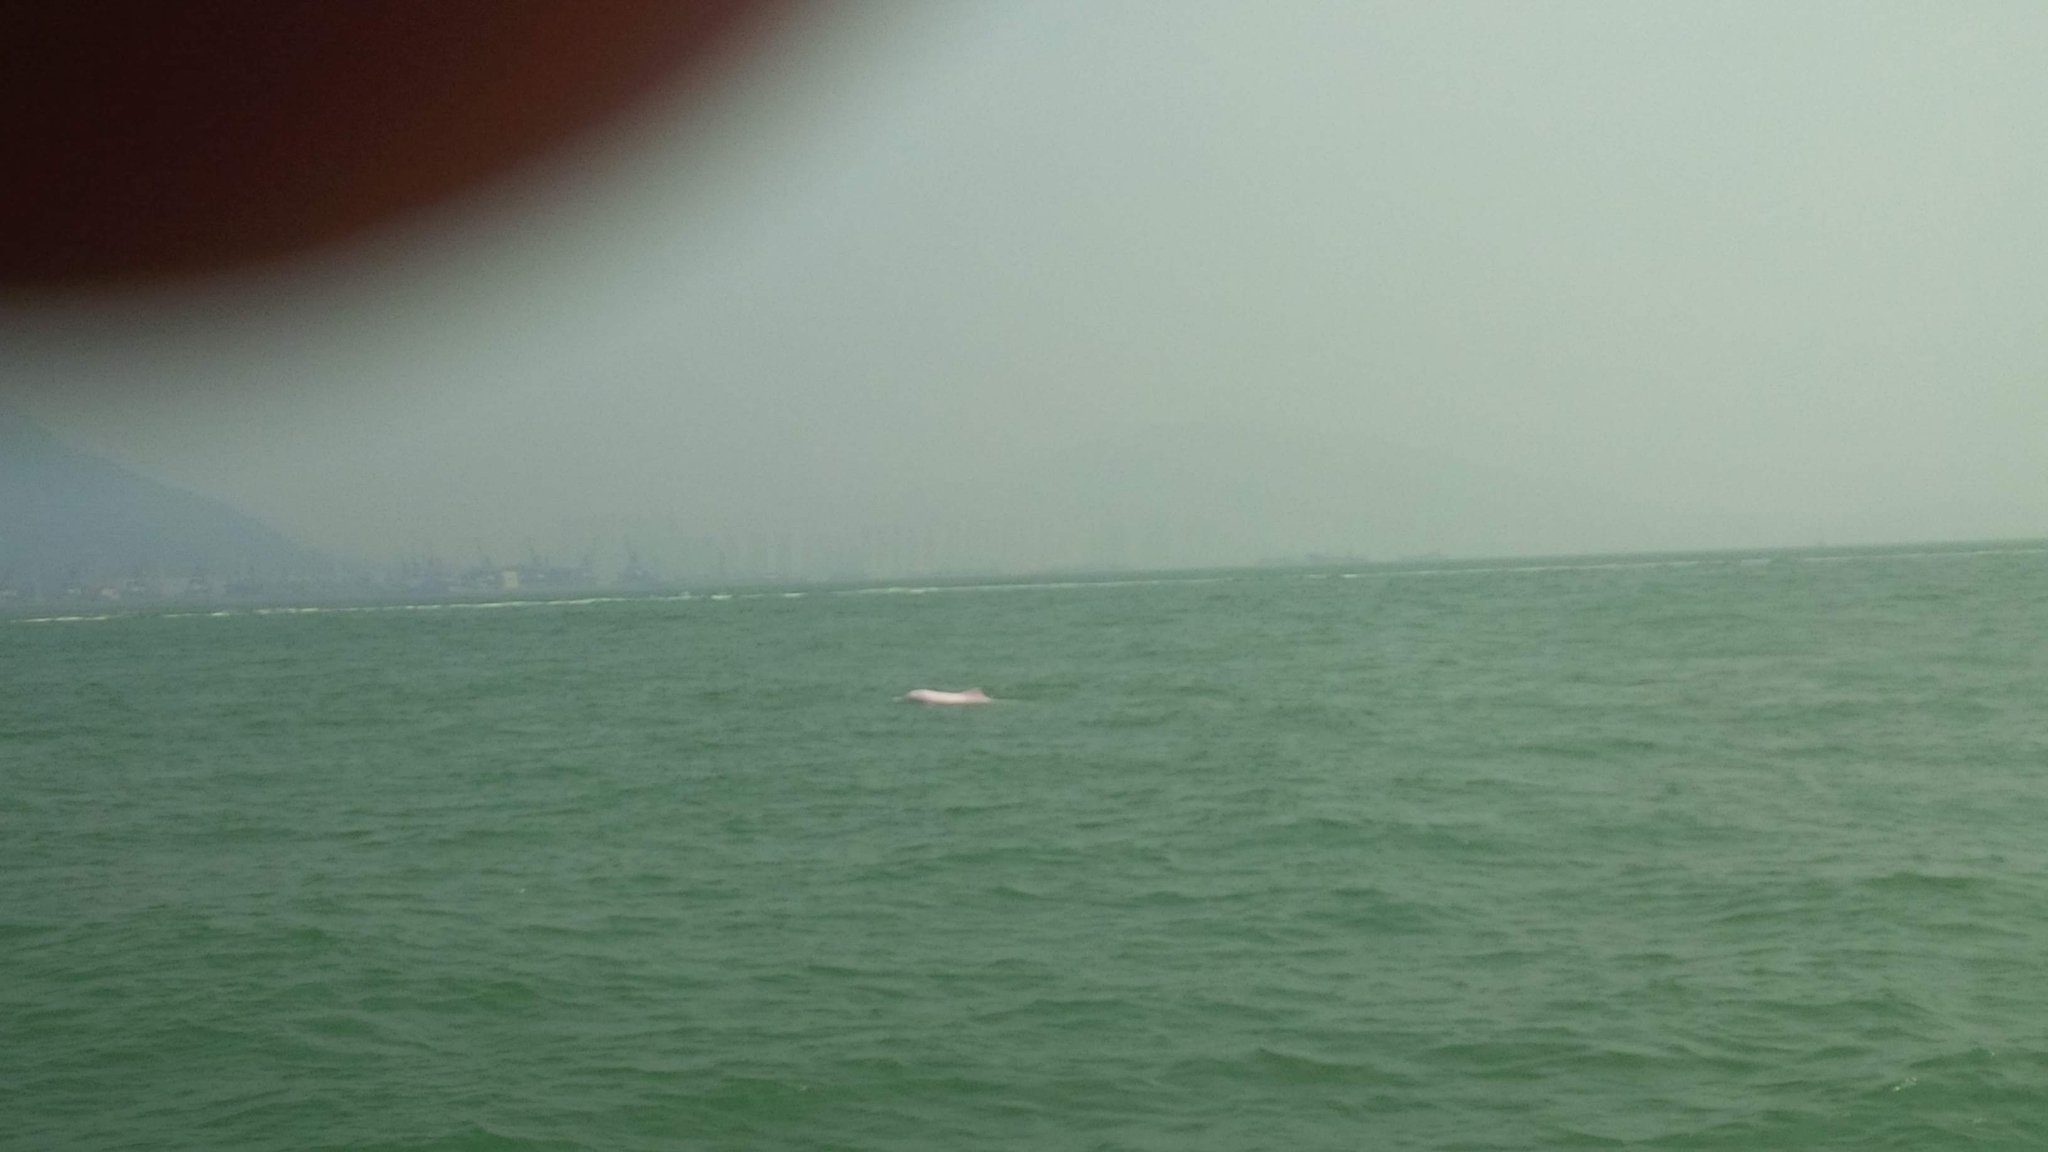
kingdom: Animalia
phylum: Chordata
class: Mammalia
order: Cetacea
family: Delphinidae
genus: Sousa
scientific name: Sousa chinensis
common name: Chinese white dolphin
